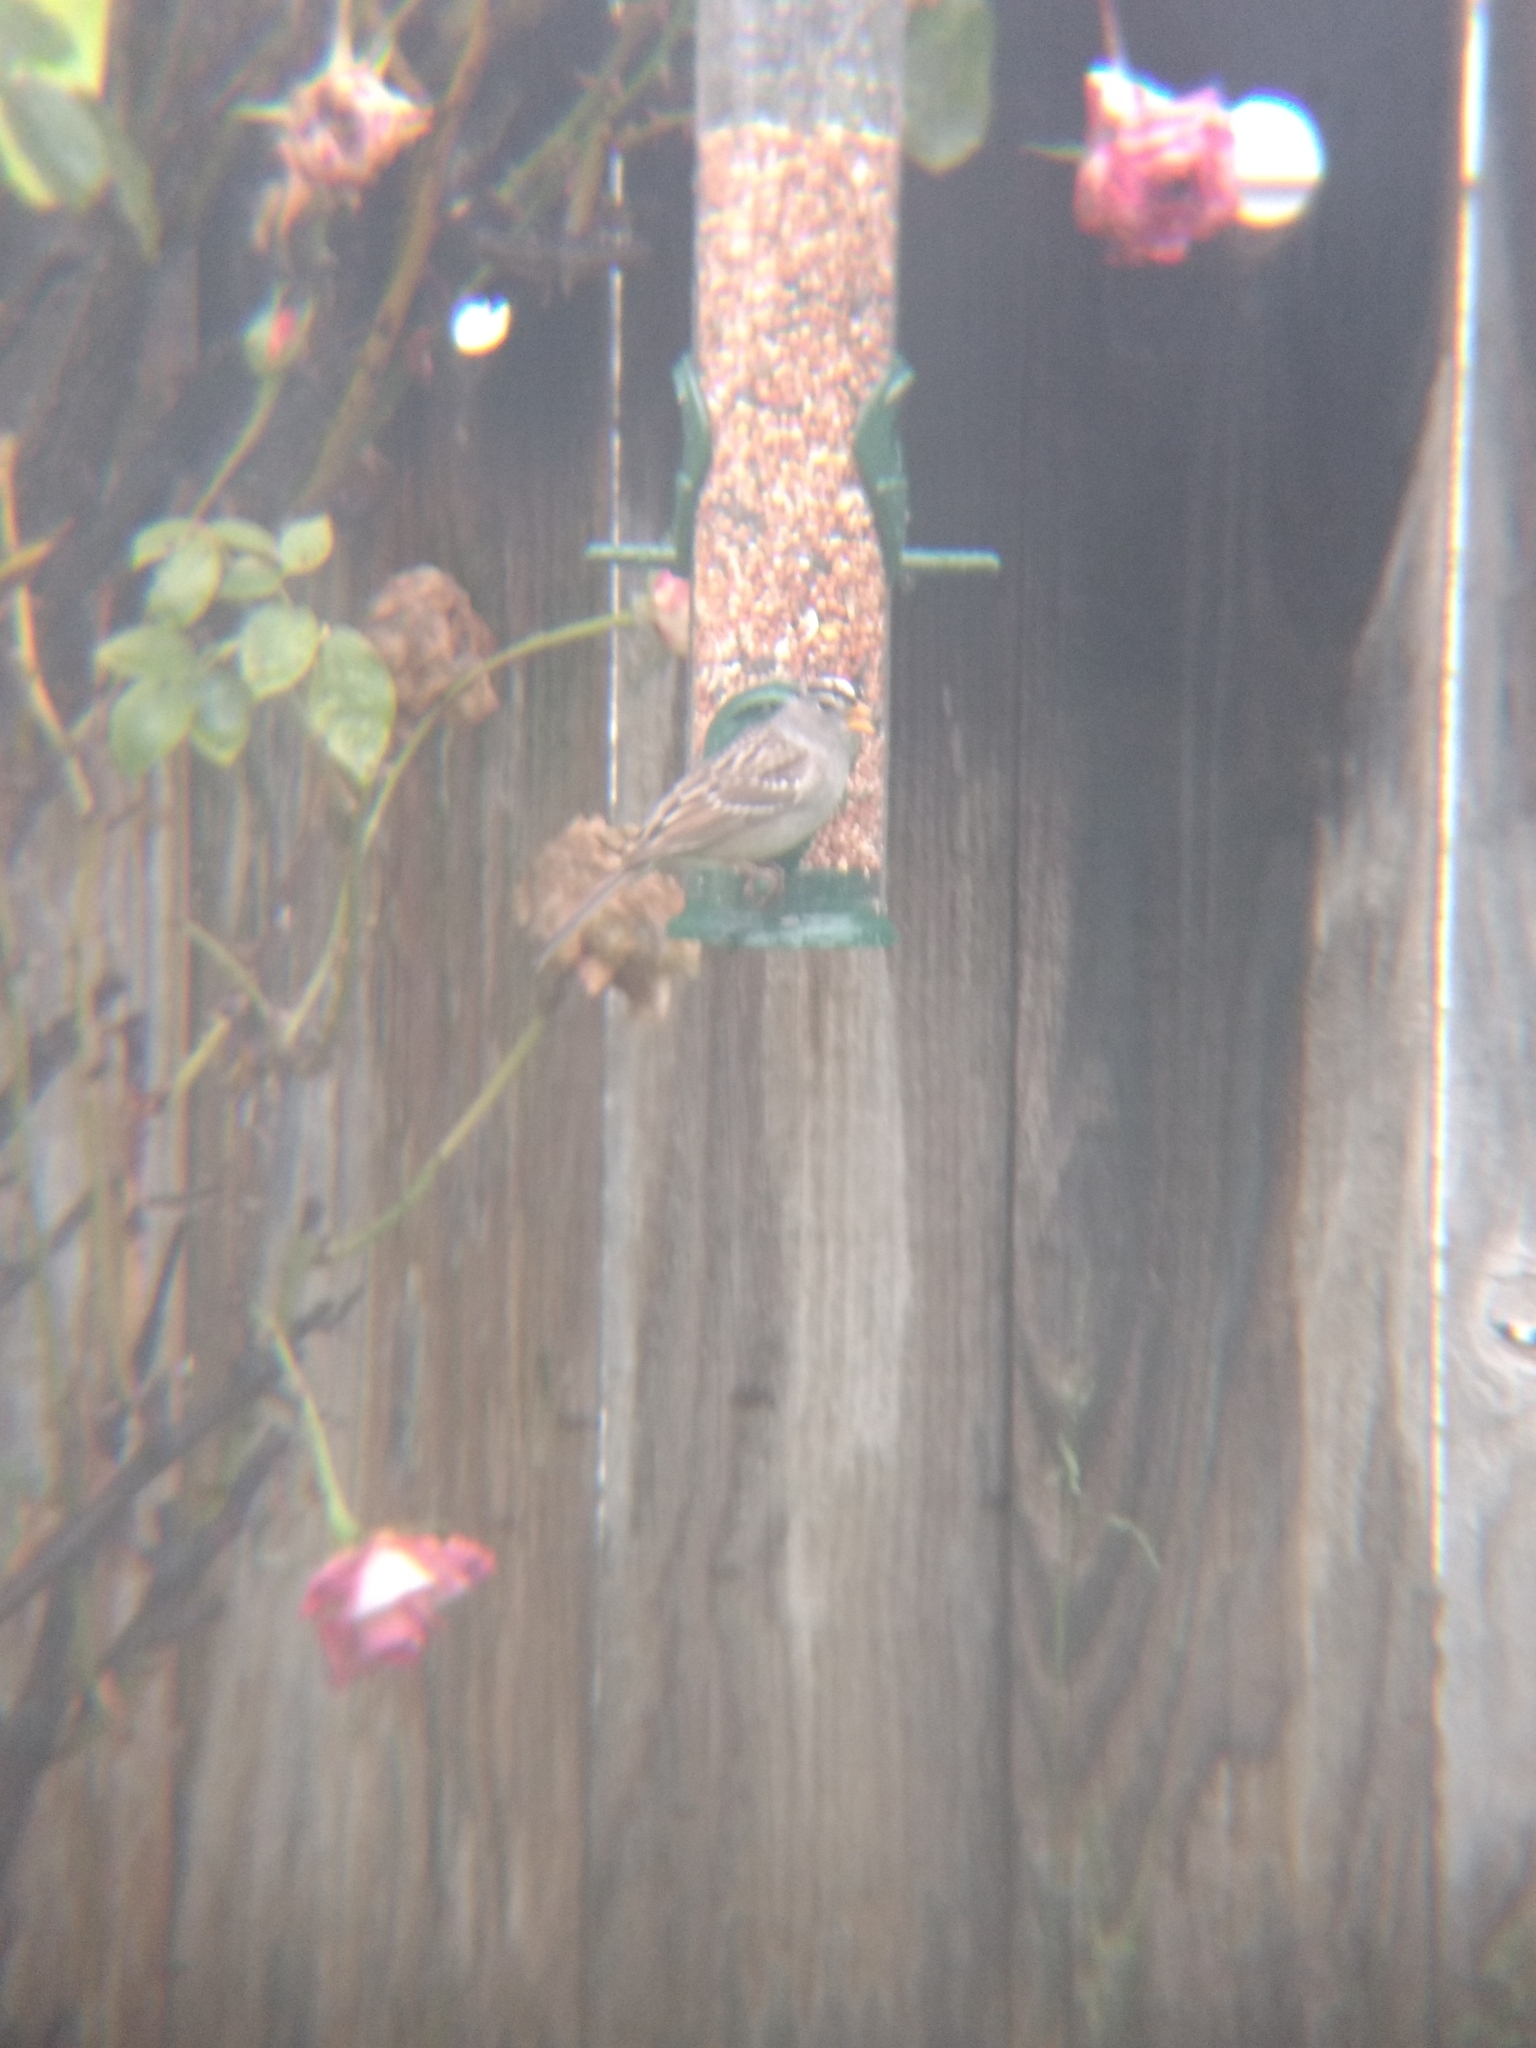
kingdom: Animalia
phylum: Chordata
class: Aves
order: Passeriformes
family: Passerellidae
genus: Zonotrichia
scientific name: Zonotrichia leucophrys
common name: White-crowned sparrow
